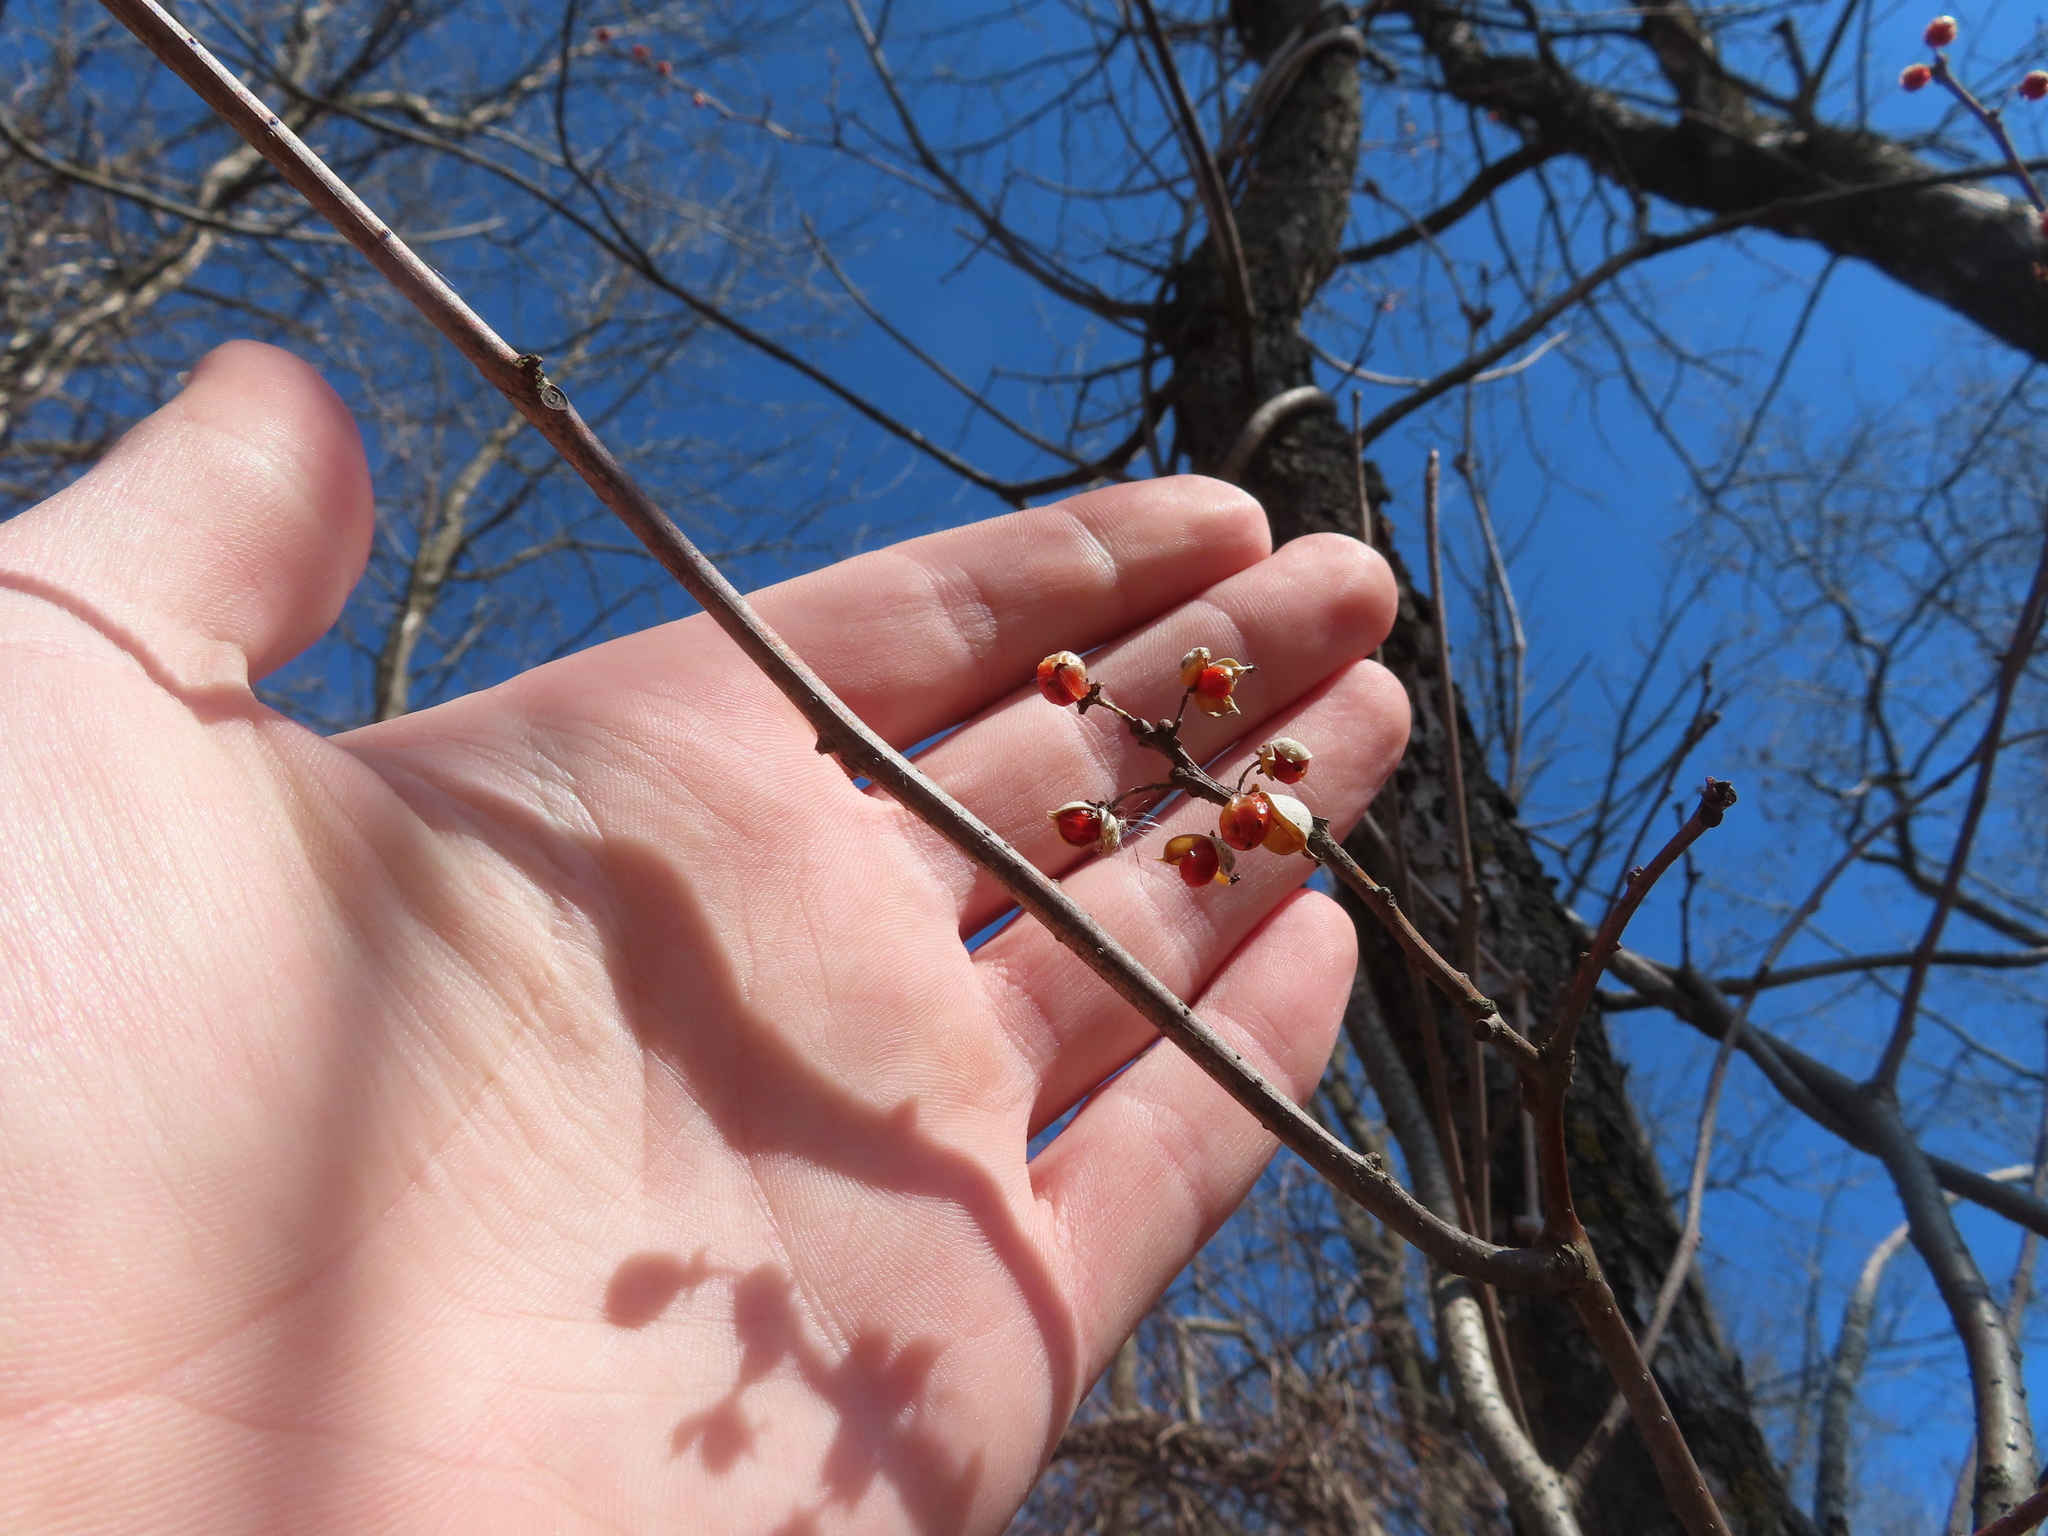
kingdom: Plantae
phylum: Tracheophyta
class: Magnoliopsida
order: Celastrales
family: Celastraceae
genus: Celastrus
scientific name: Celastrus orbiculatus
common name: Oriental bittersweet
